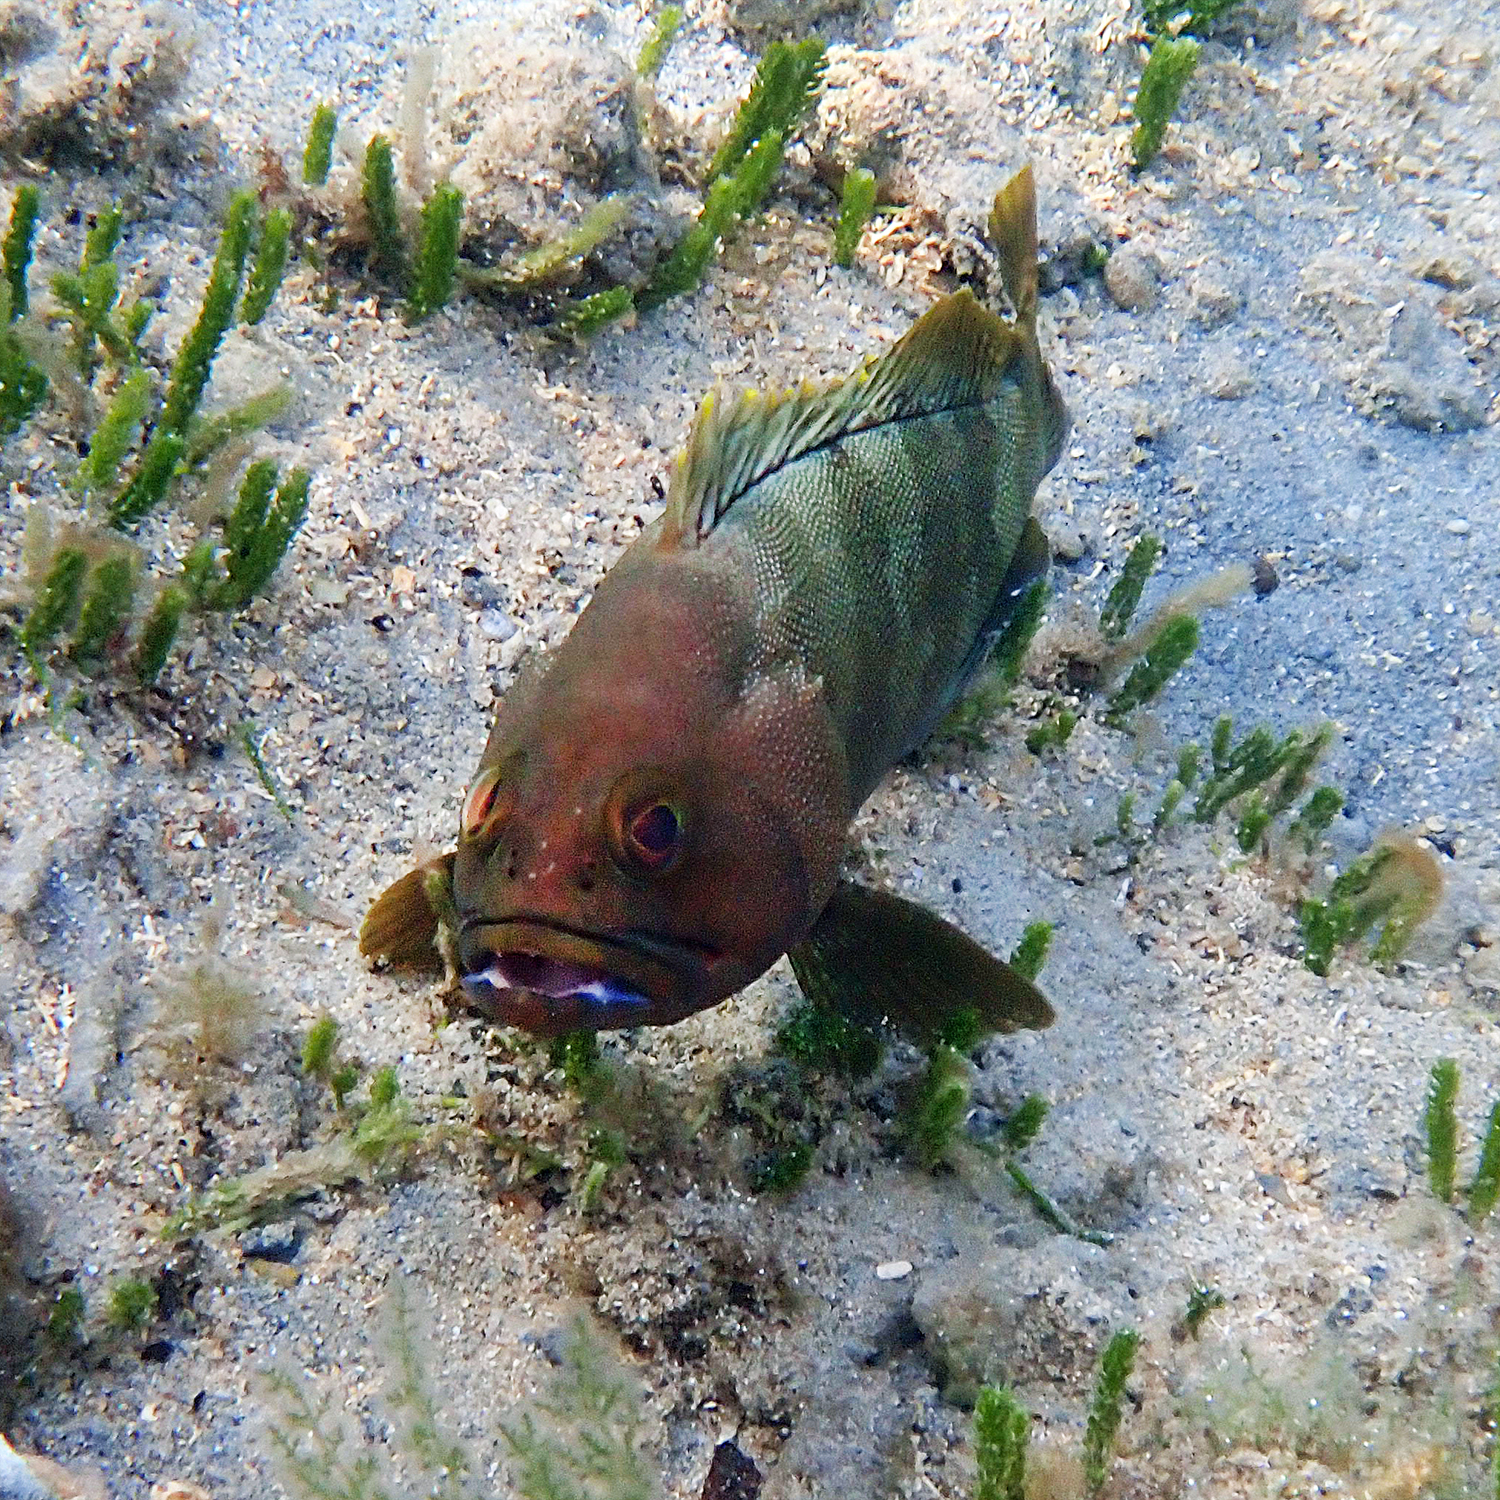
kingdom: Animalia
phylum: Chordata
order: Perciformes
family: Serranidae
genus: Epinephelus
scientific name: Epinephelus rivulatus
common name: Halfmoon grouper
